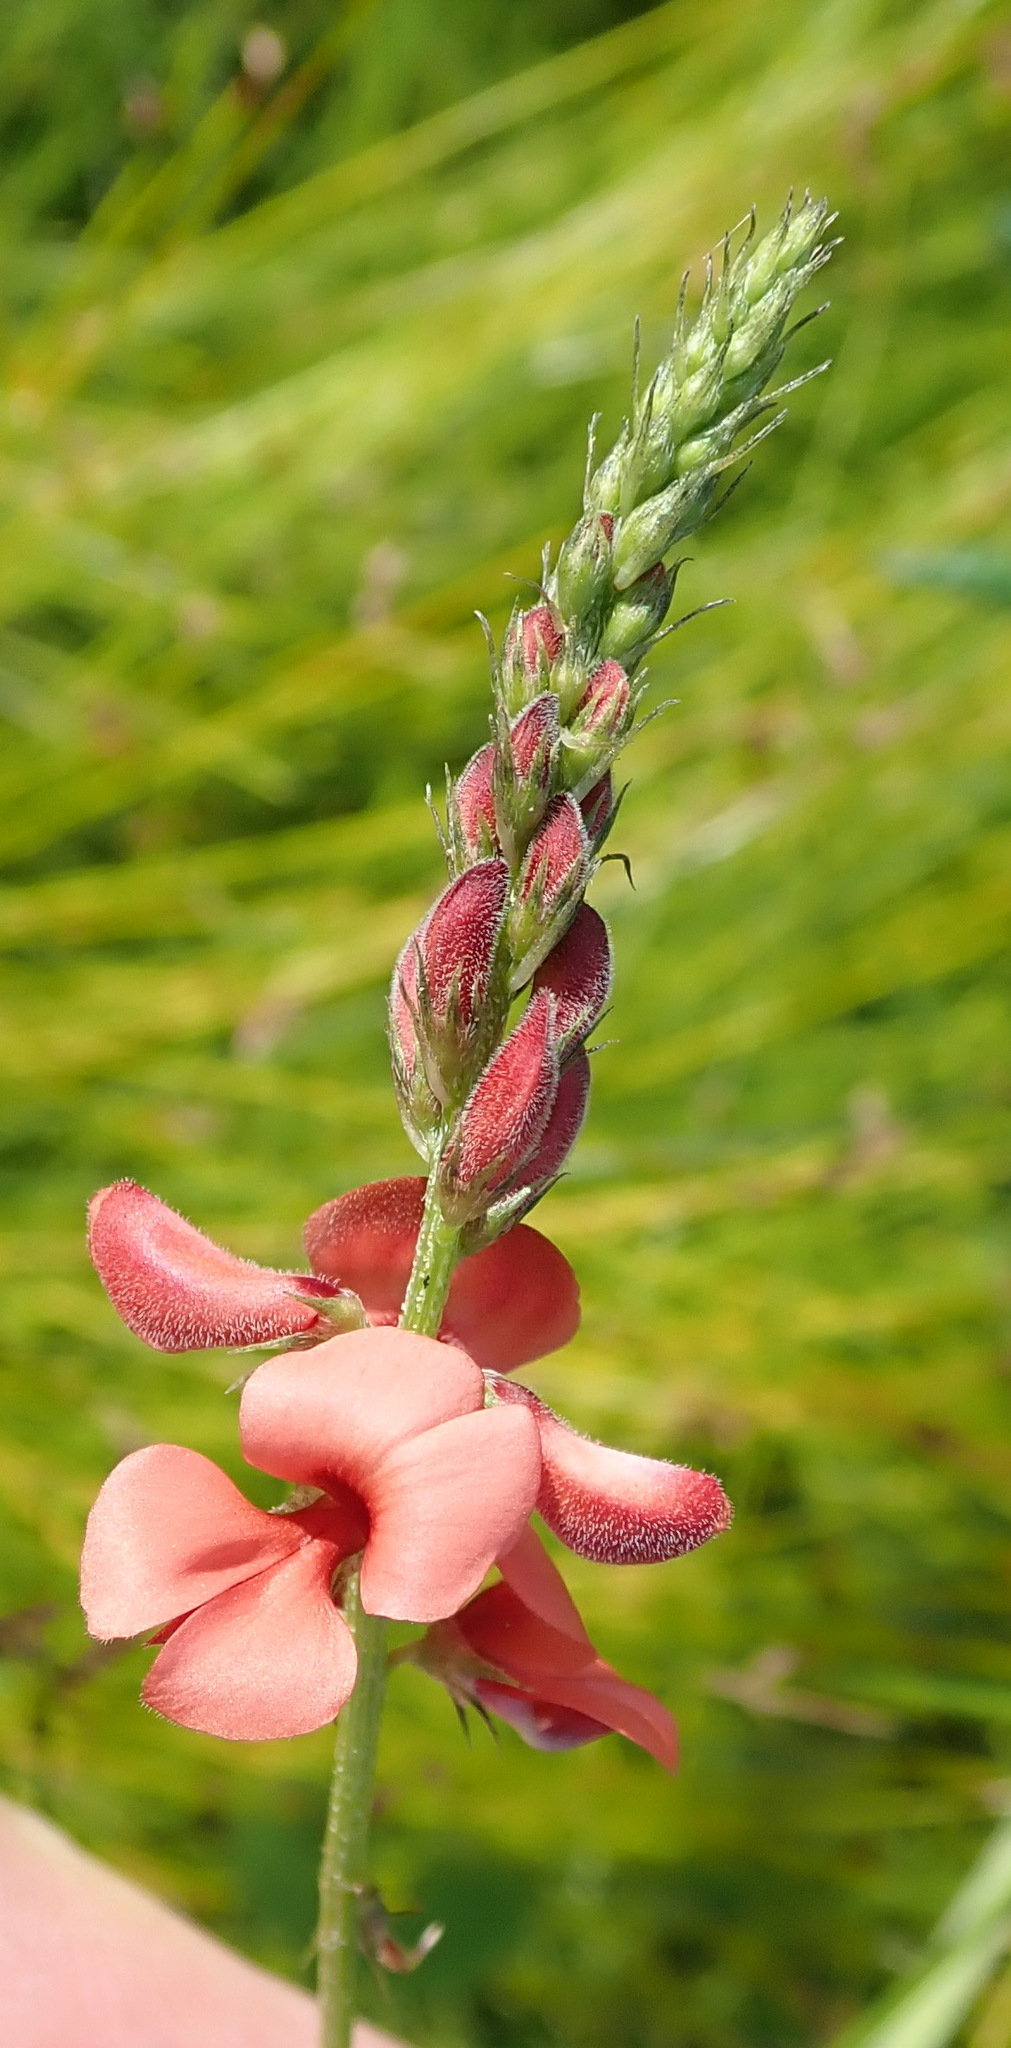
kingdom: Plantae
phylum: Tracheophyta
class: Magnoliopsida
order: Fabales
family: Fabaceae
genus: Indigofera
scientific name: Indigofera erecta
